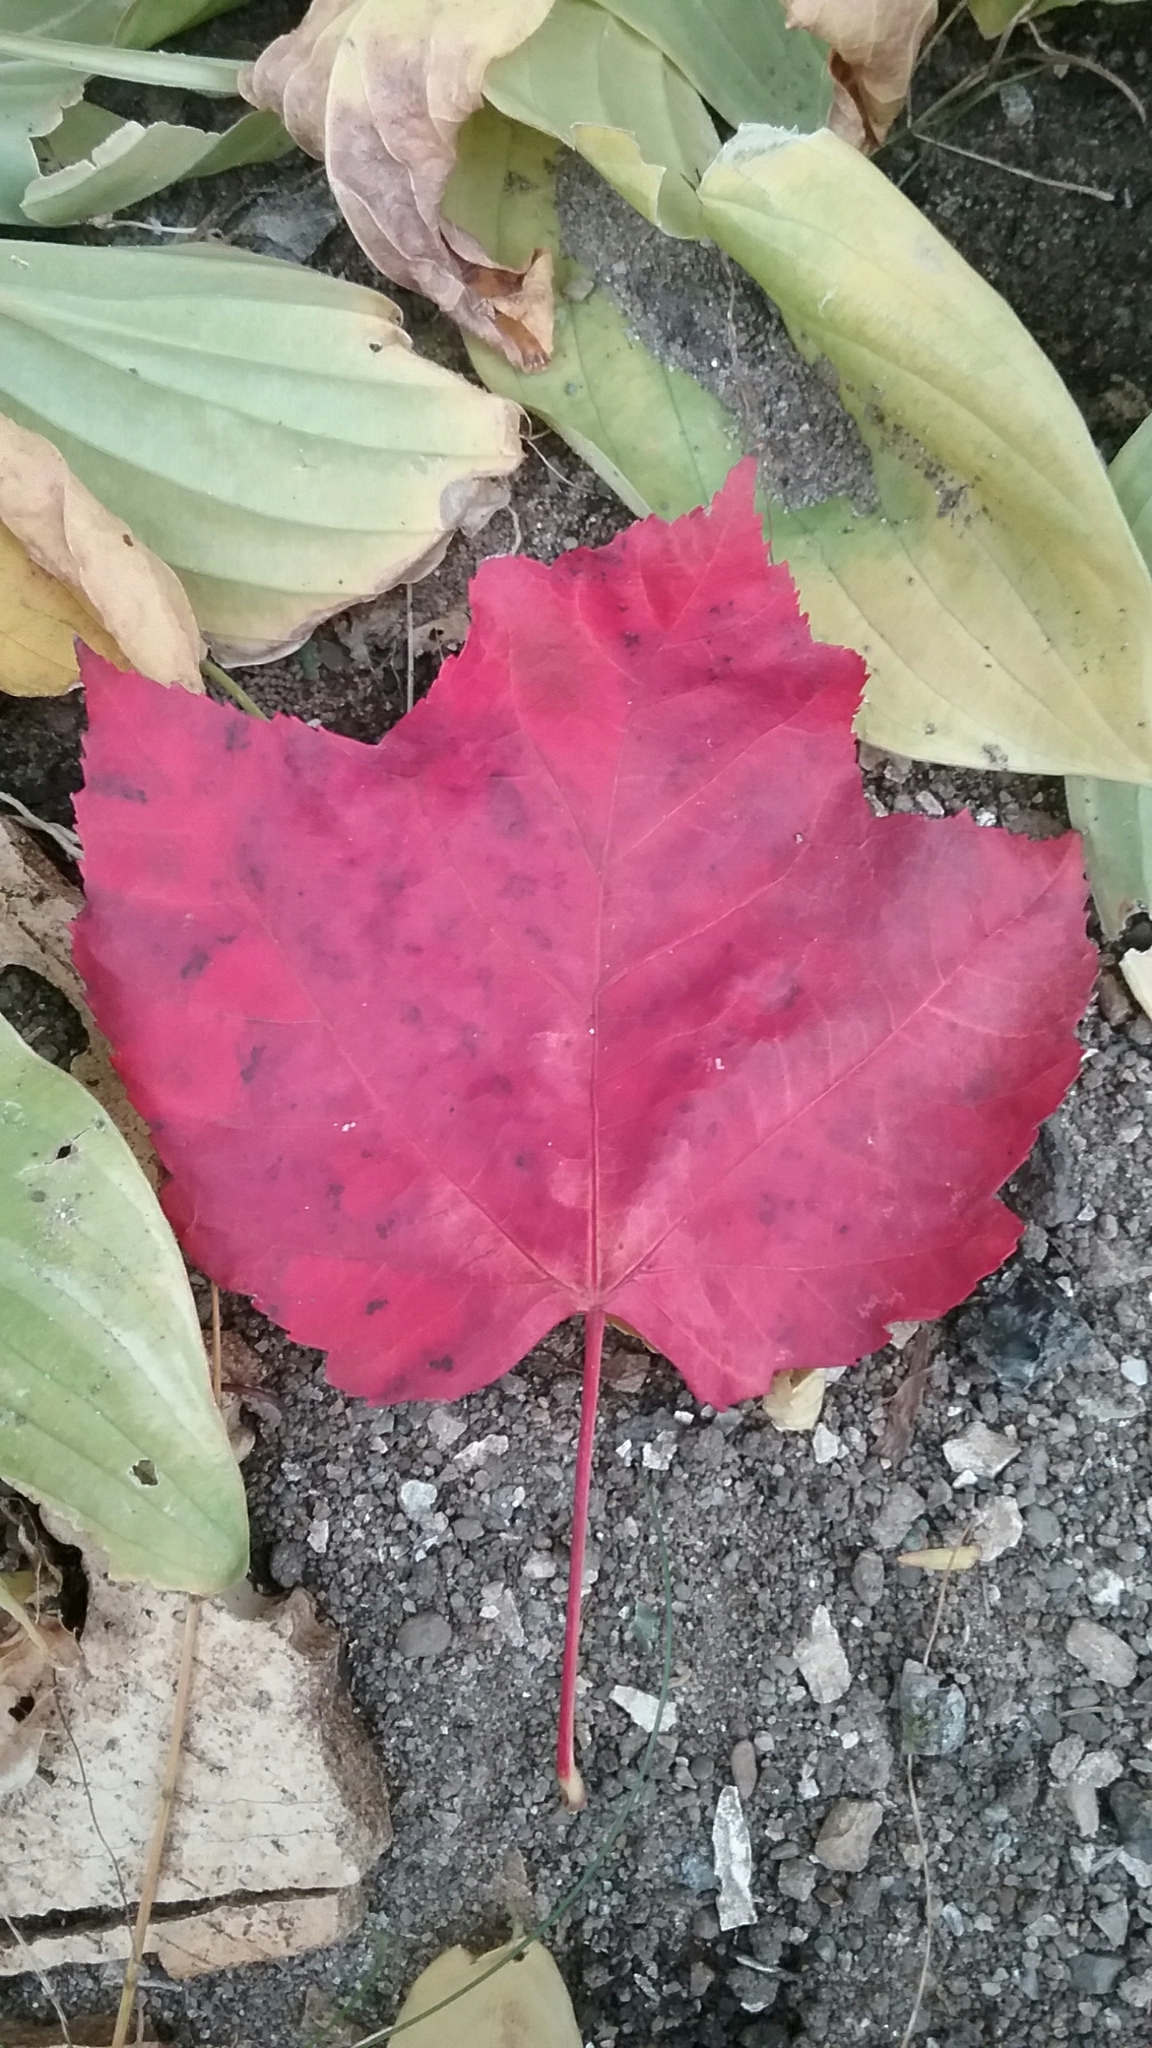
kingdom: Plantae
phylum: Tracheophyta
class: Magnoliopsida
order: Sapindales
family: Sapindaceae
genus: Acer
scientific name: Acer rubrum
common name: Red maple
